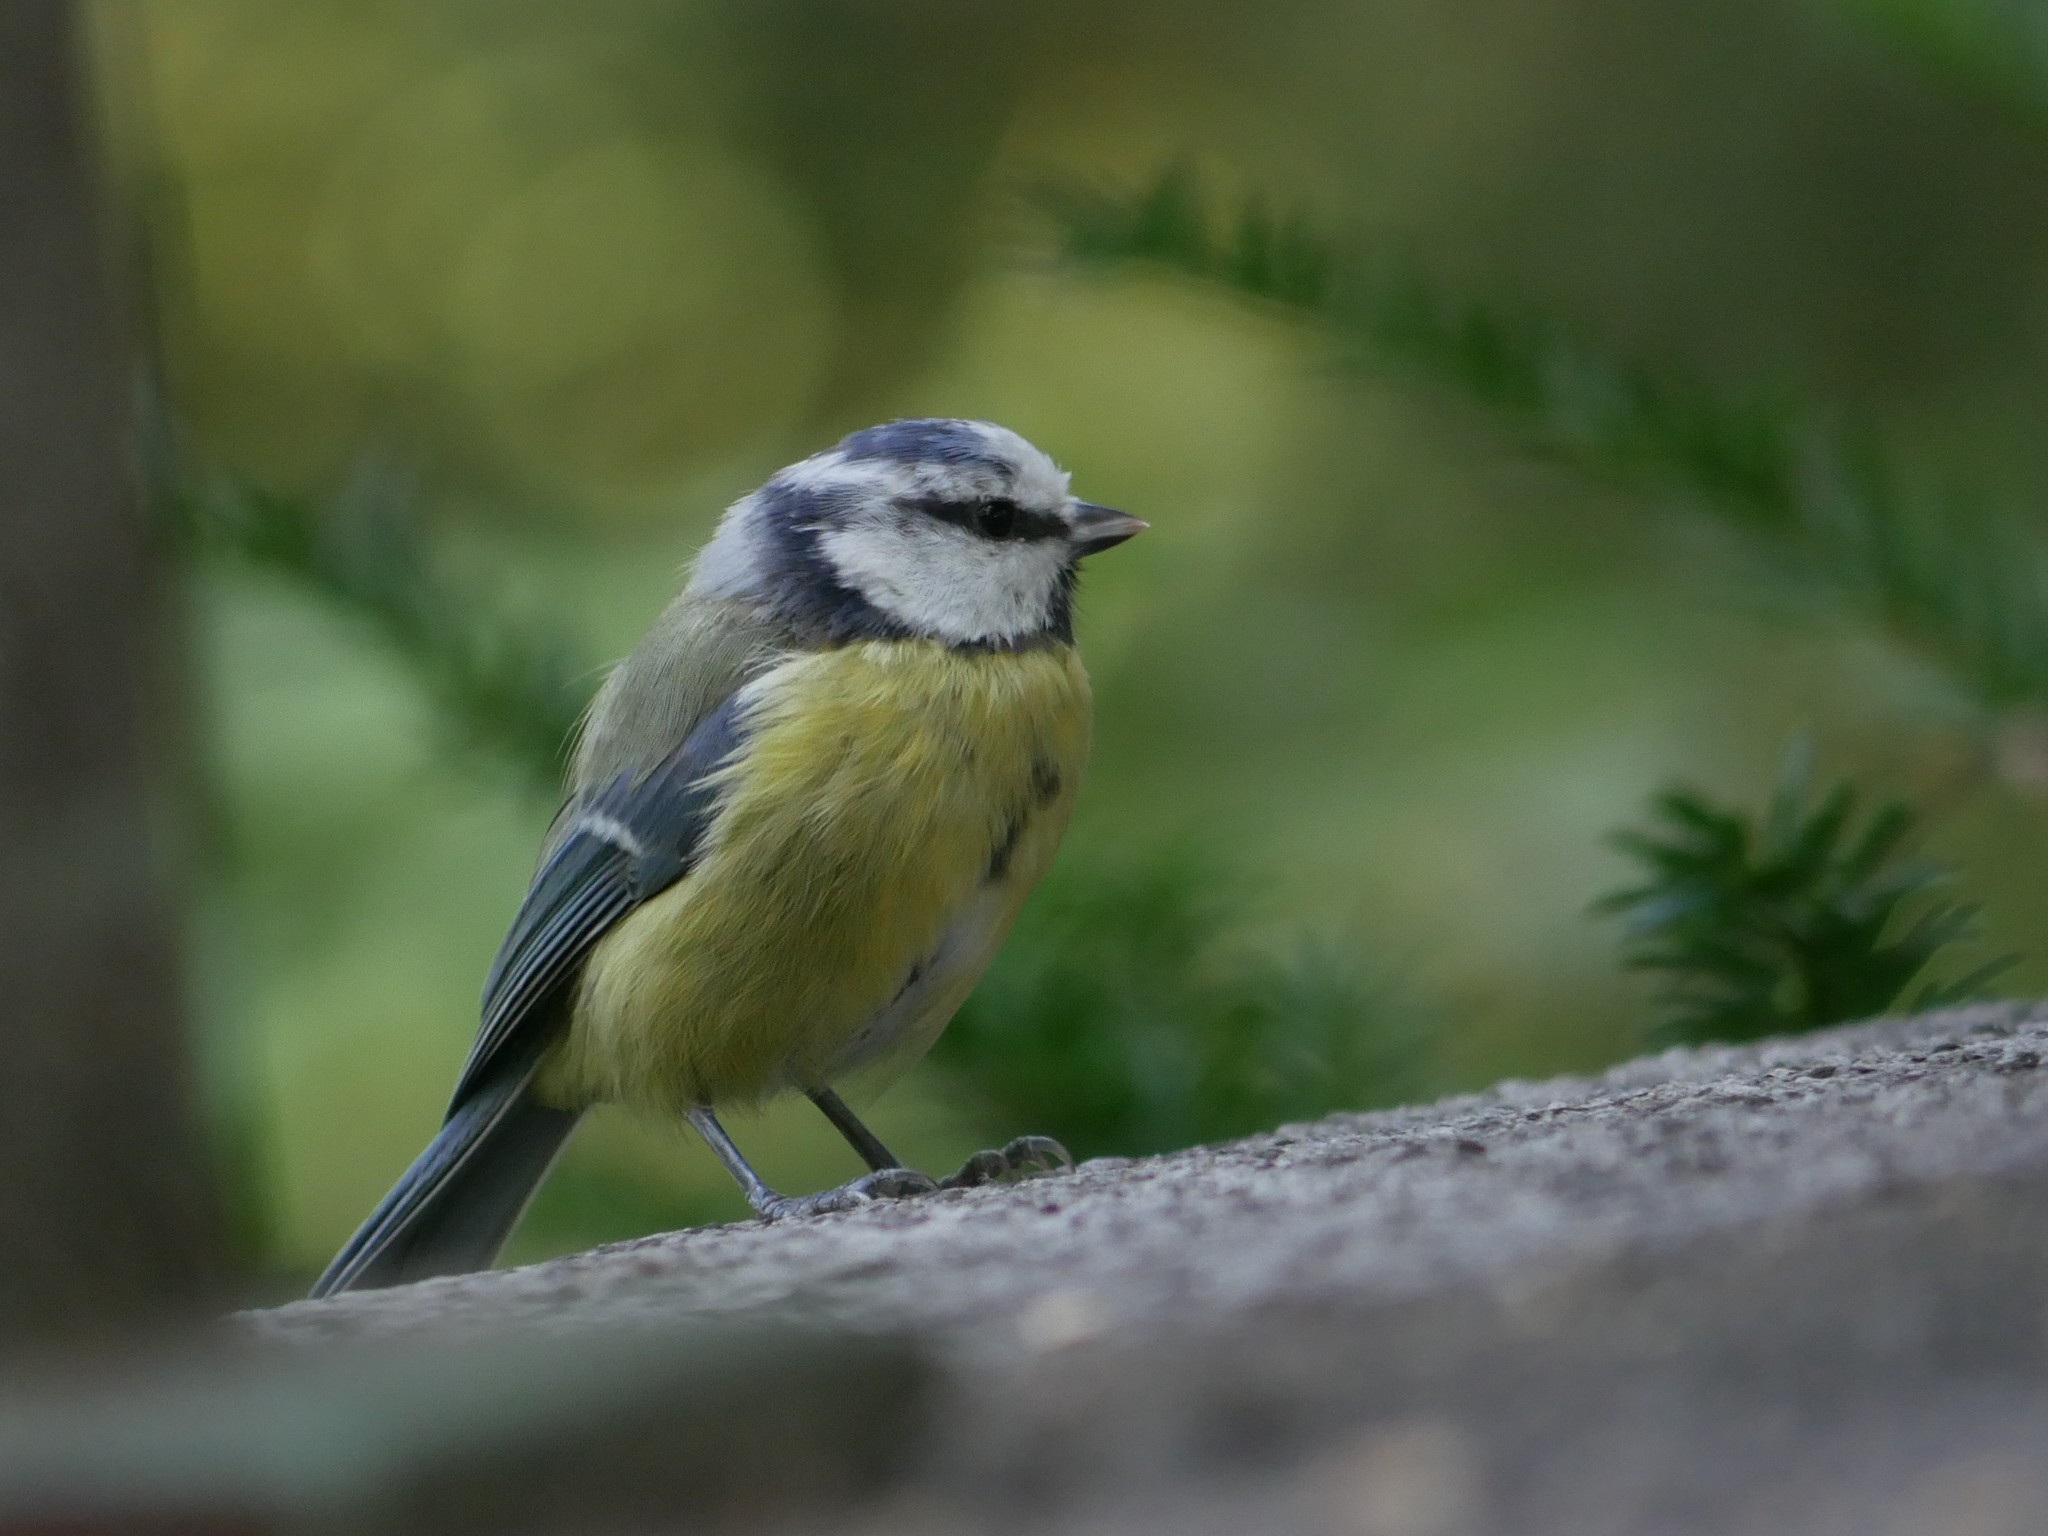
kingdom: Animalia
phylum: Chordata
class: Aves
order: Passeriformes
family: Paridae
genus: Cyanistes
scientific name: Cyanistes caeruleus
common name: Eurasian blue tit
